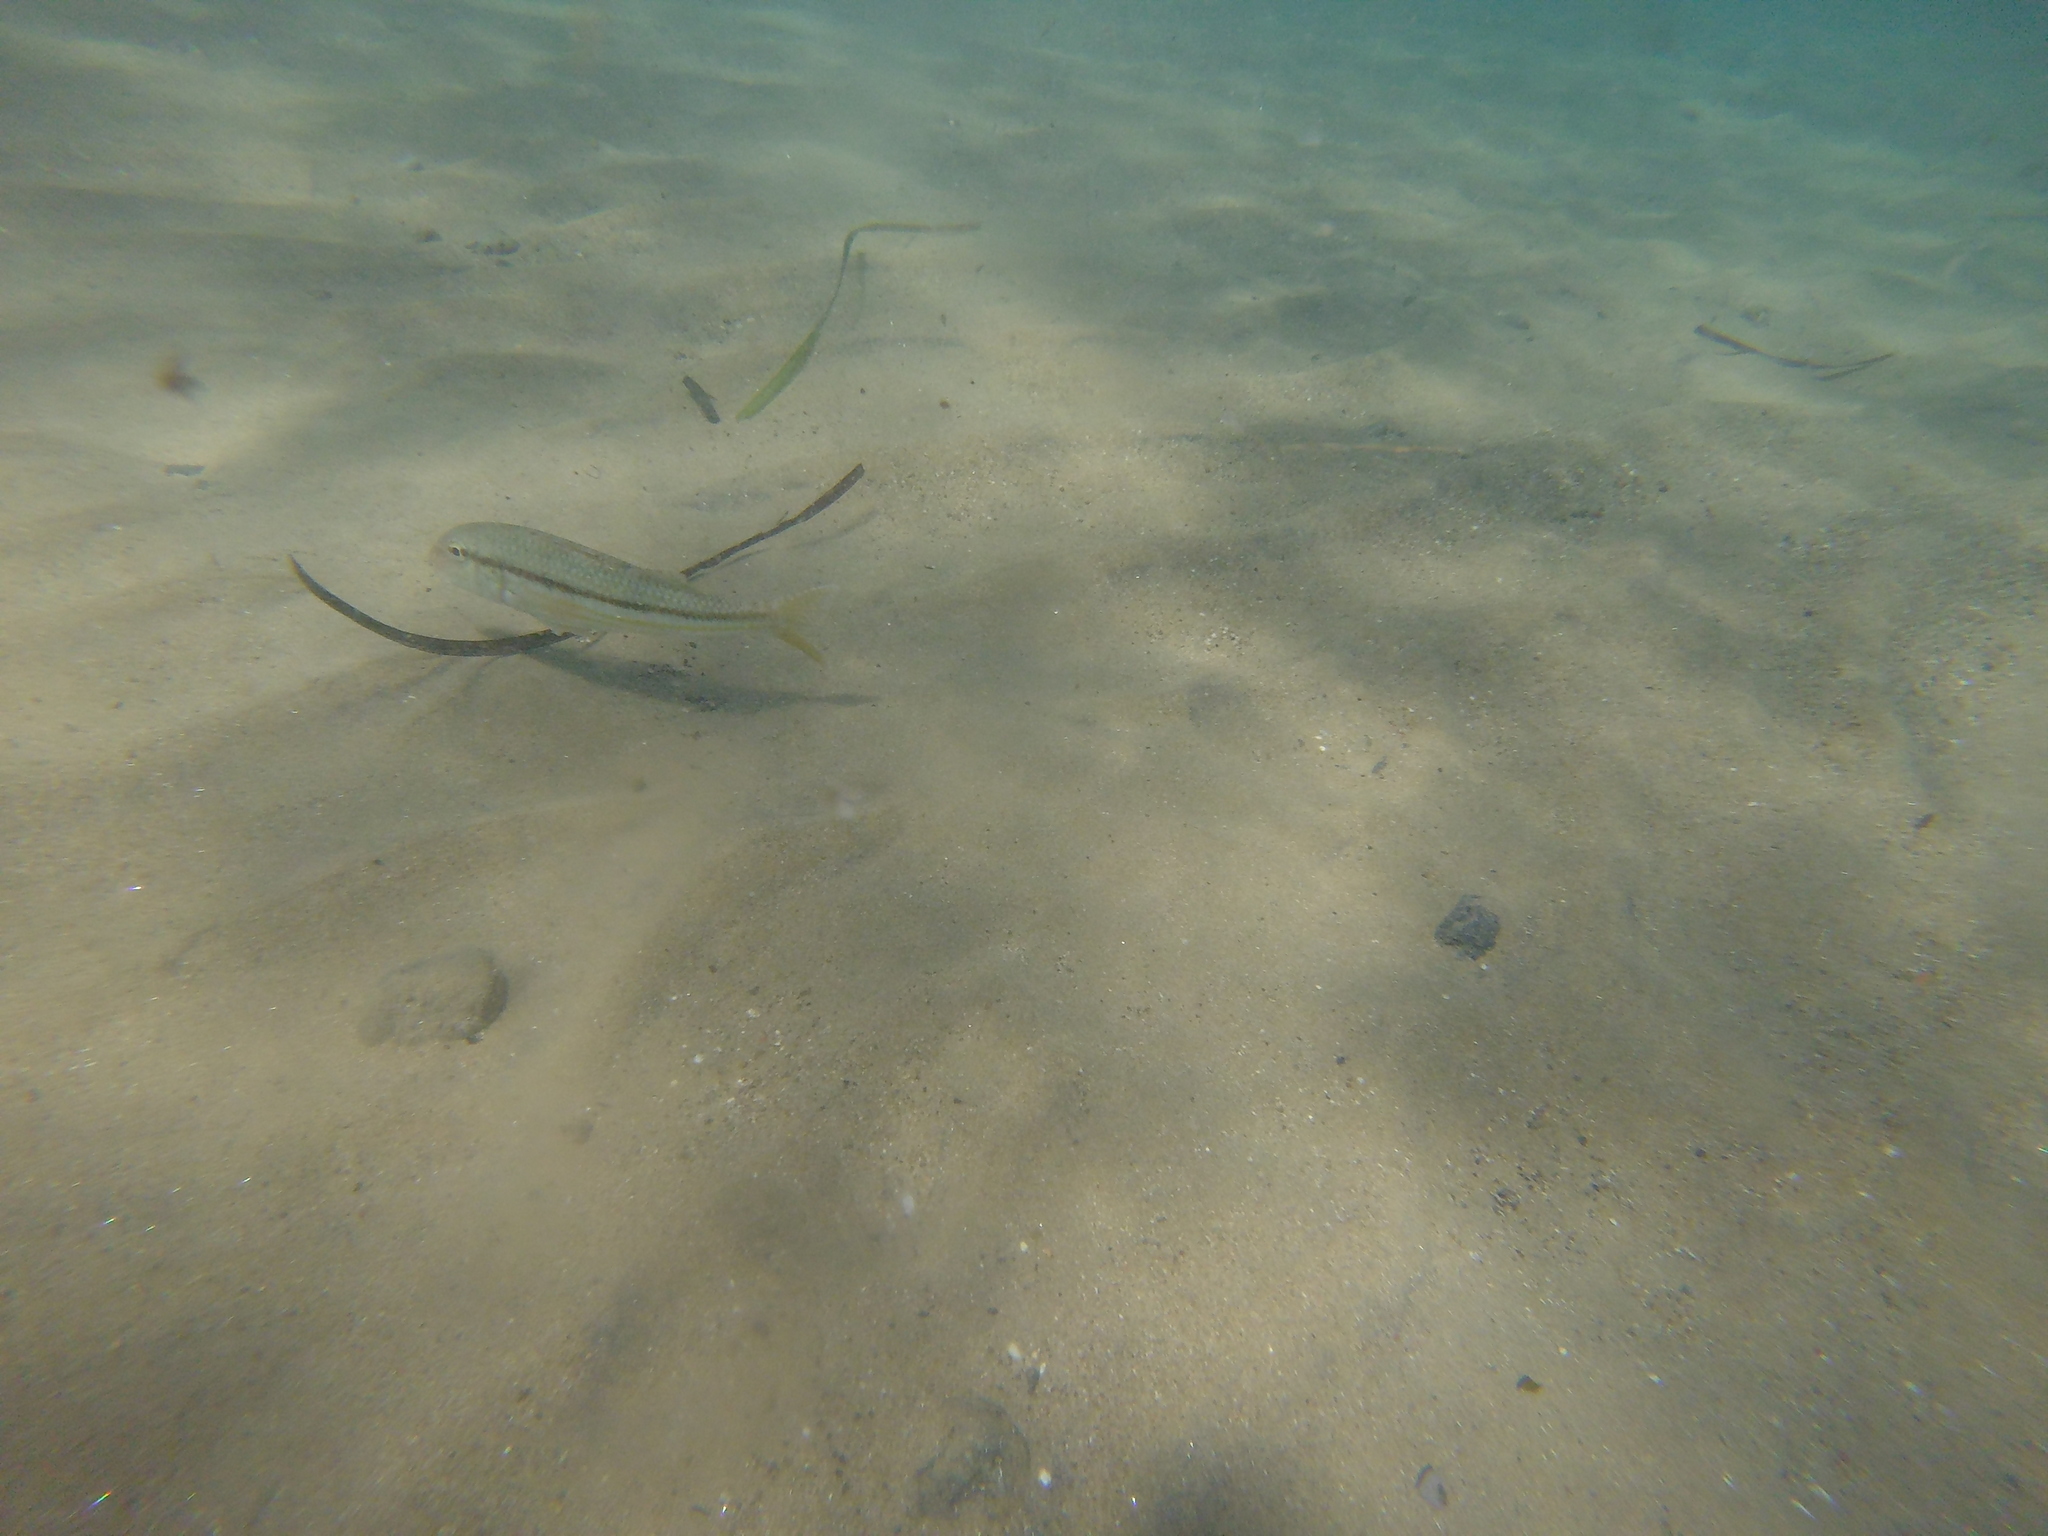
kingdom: Animalia
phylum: Chordata
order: Perciformes
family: Mullidae
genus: Mullus
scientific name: Mullus surmuletus
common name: Red mullet
